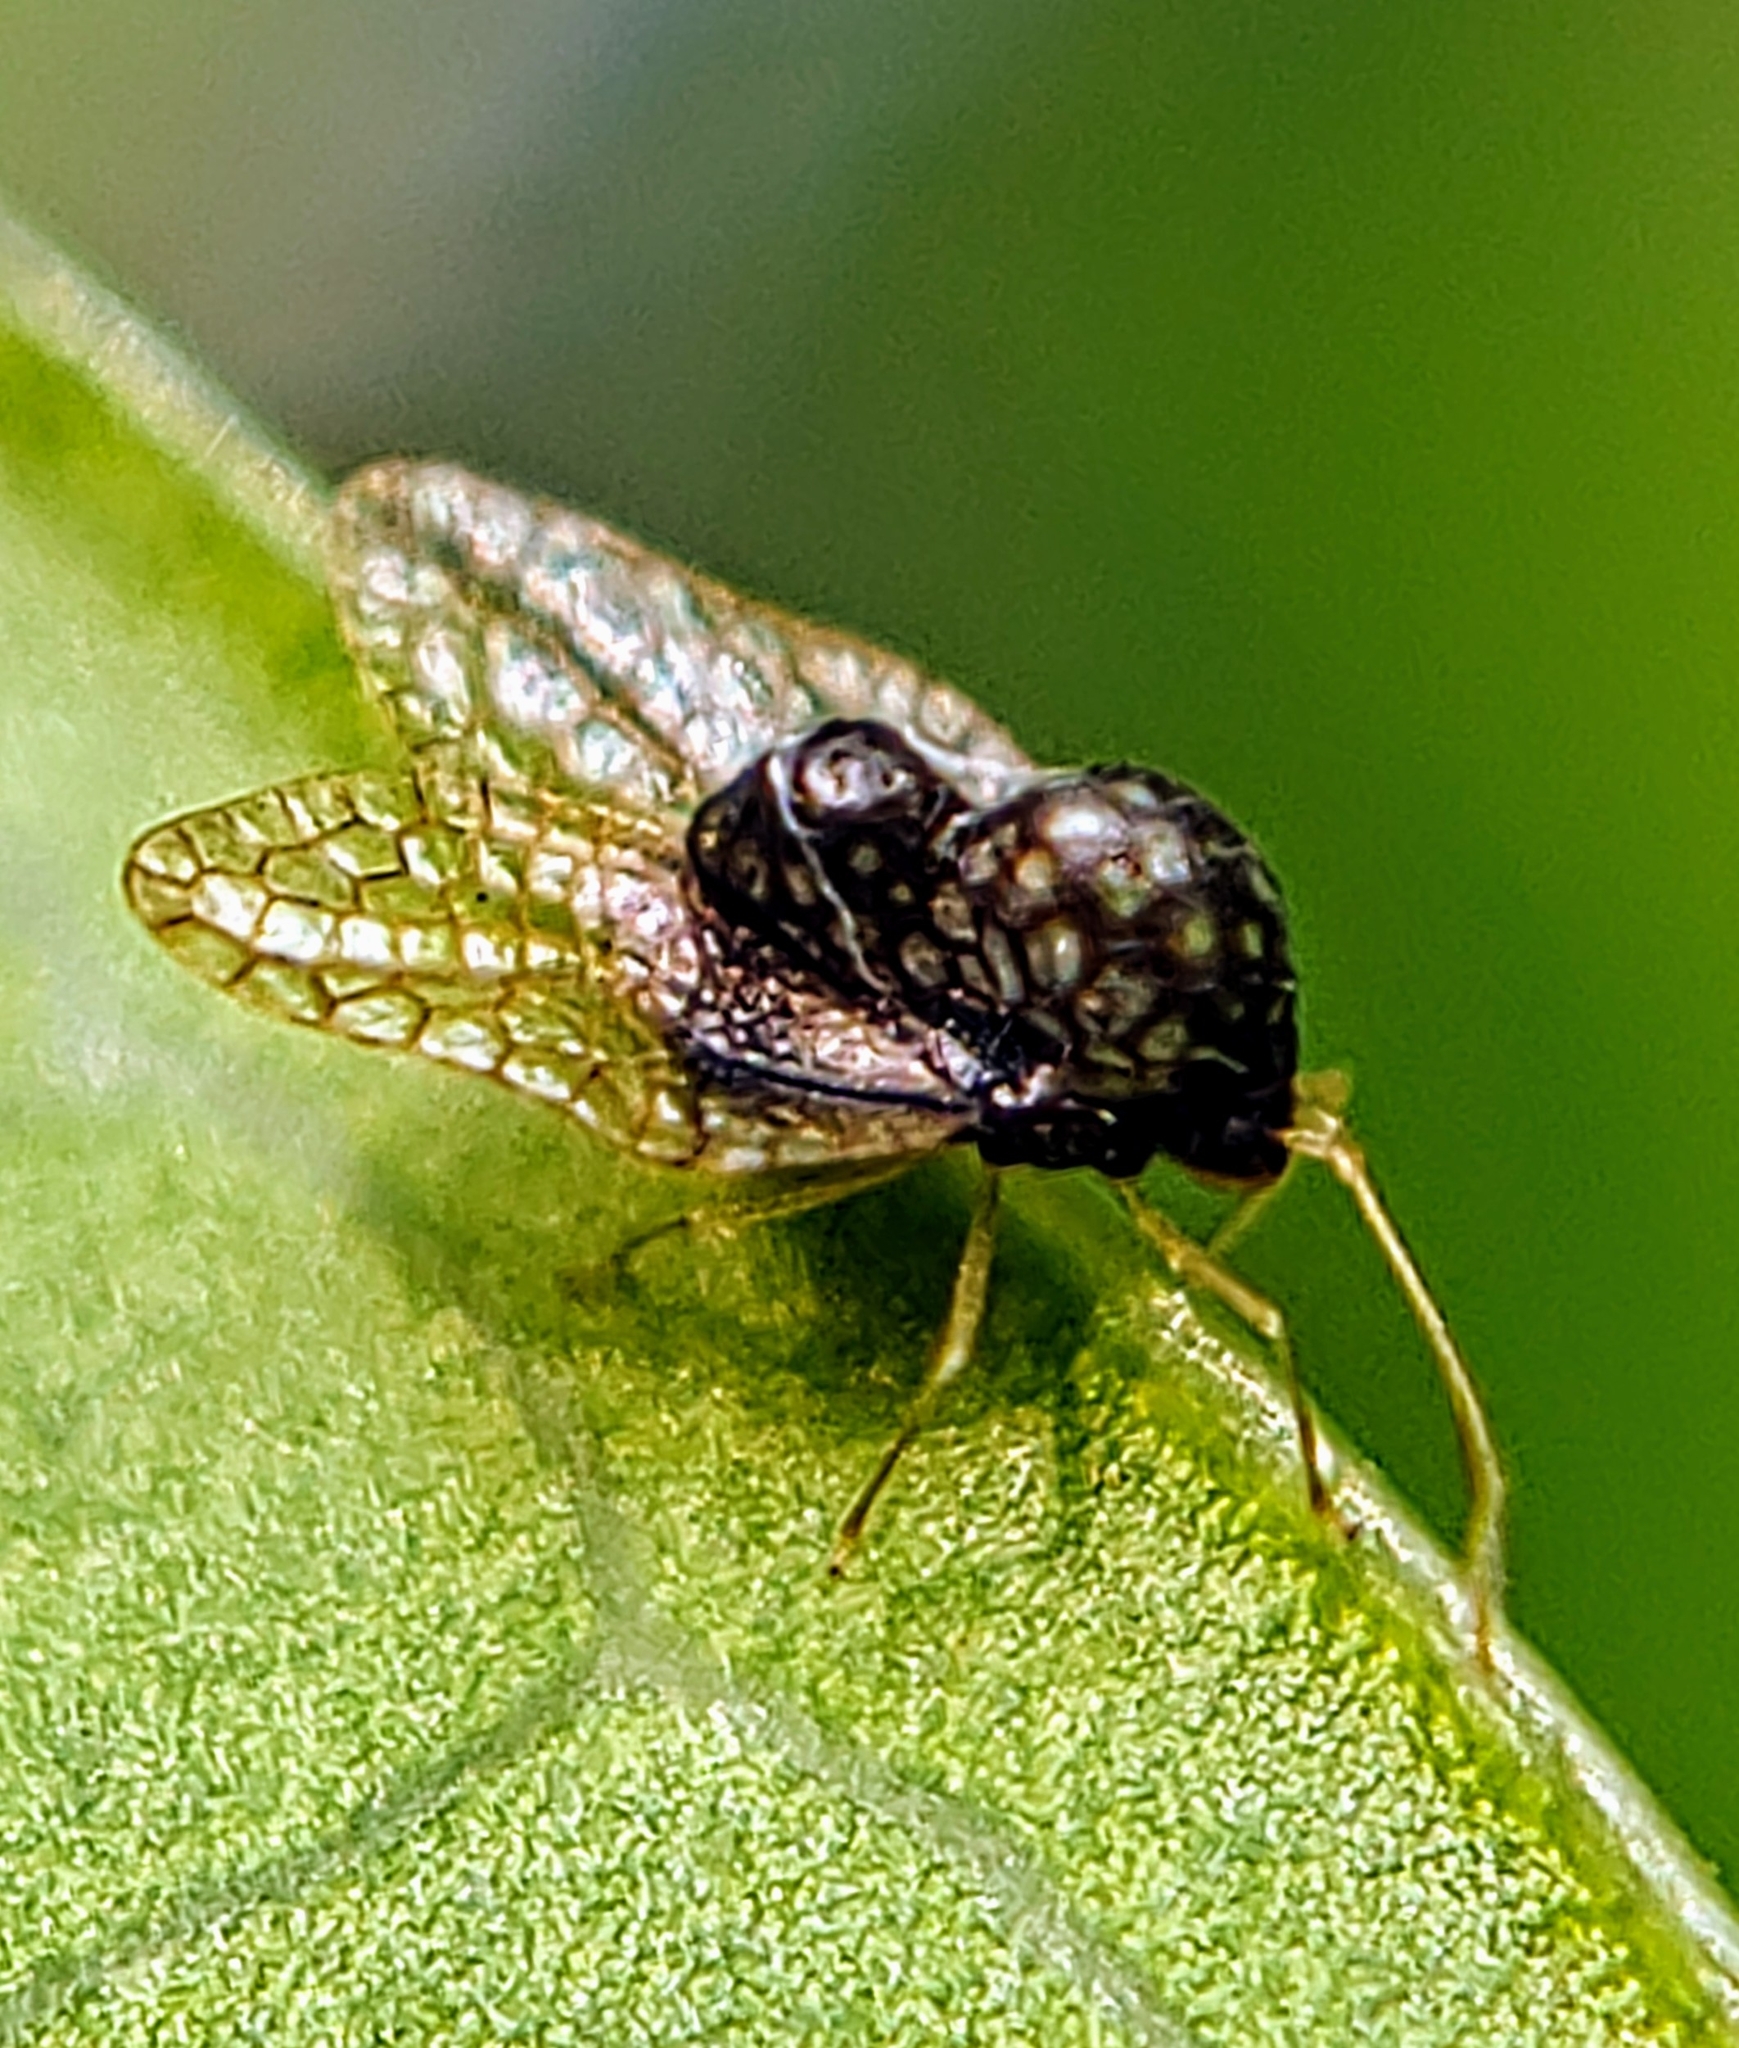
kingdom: Animalia
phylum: Arthropoda
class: Insecta
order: Hemiptera
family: Tingidae
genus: Alloiothucha
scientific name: Alloiothucha artocarpi
